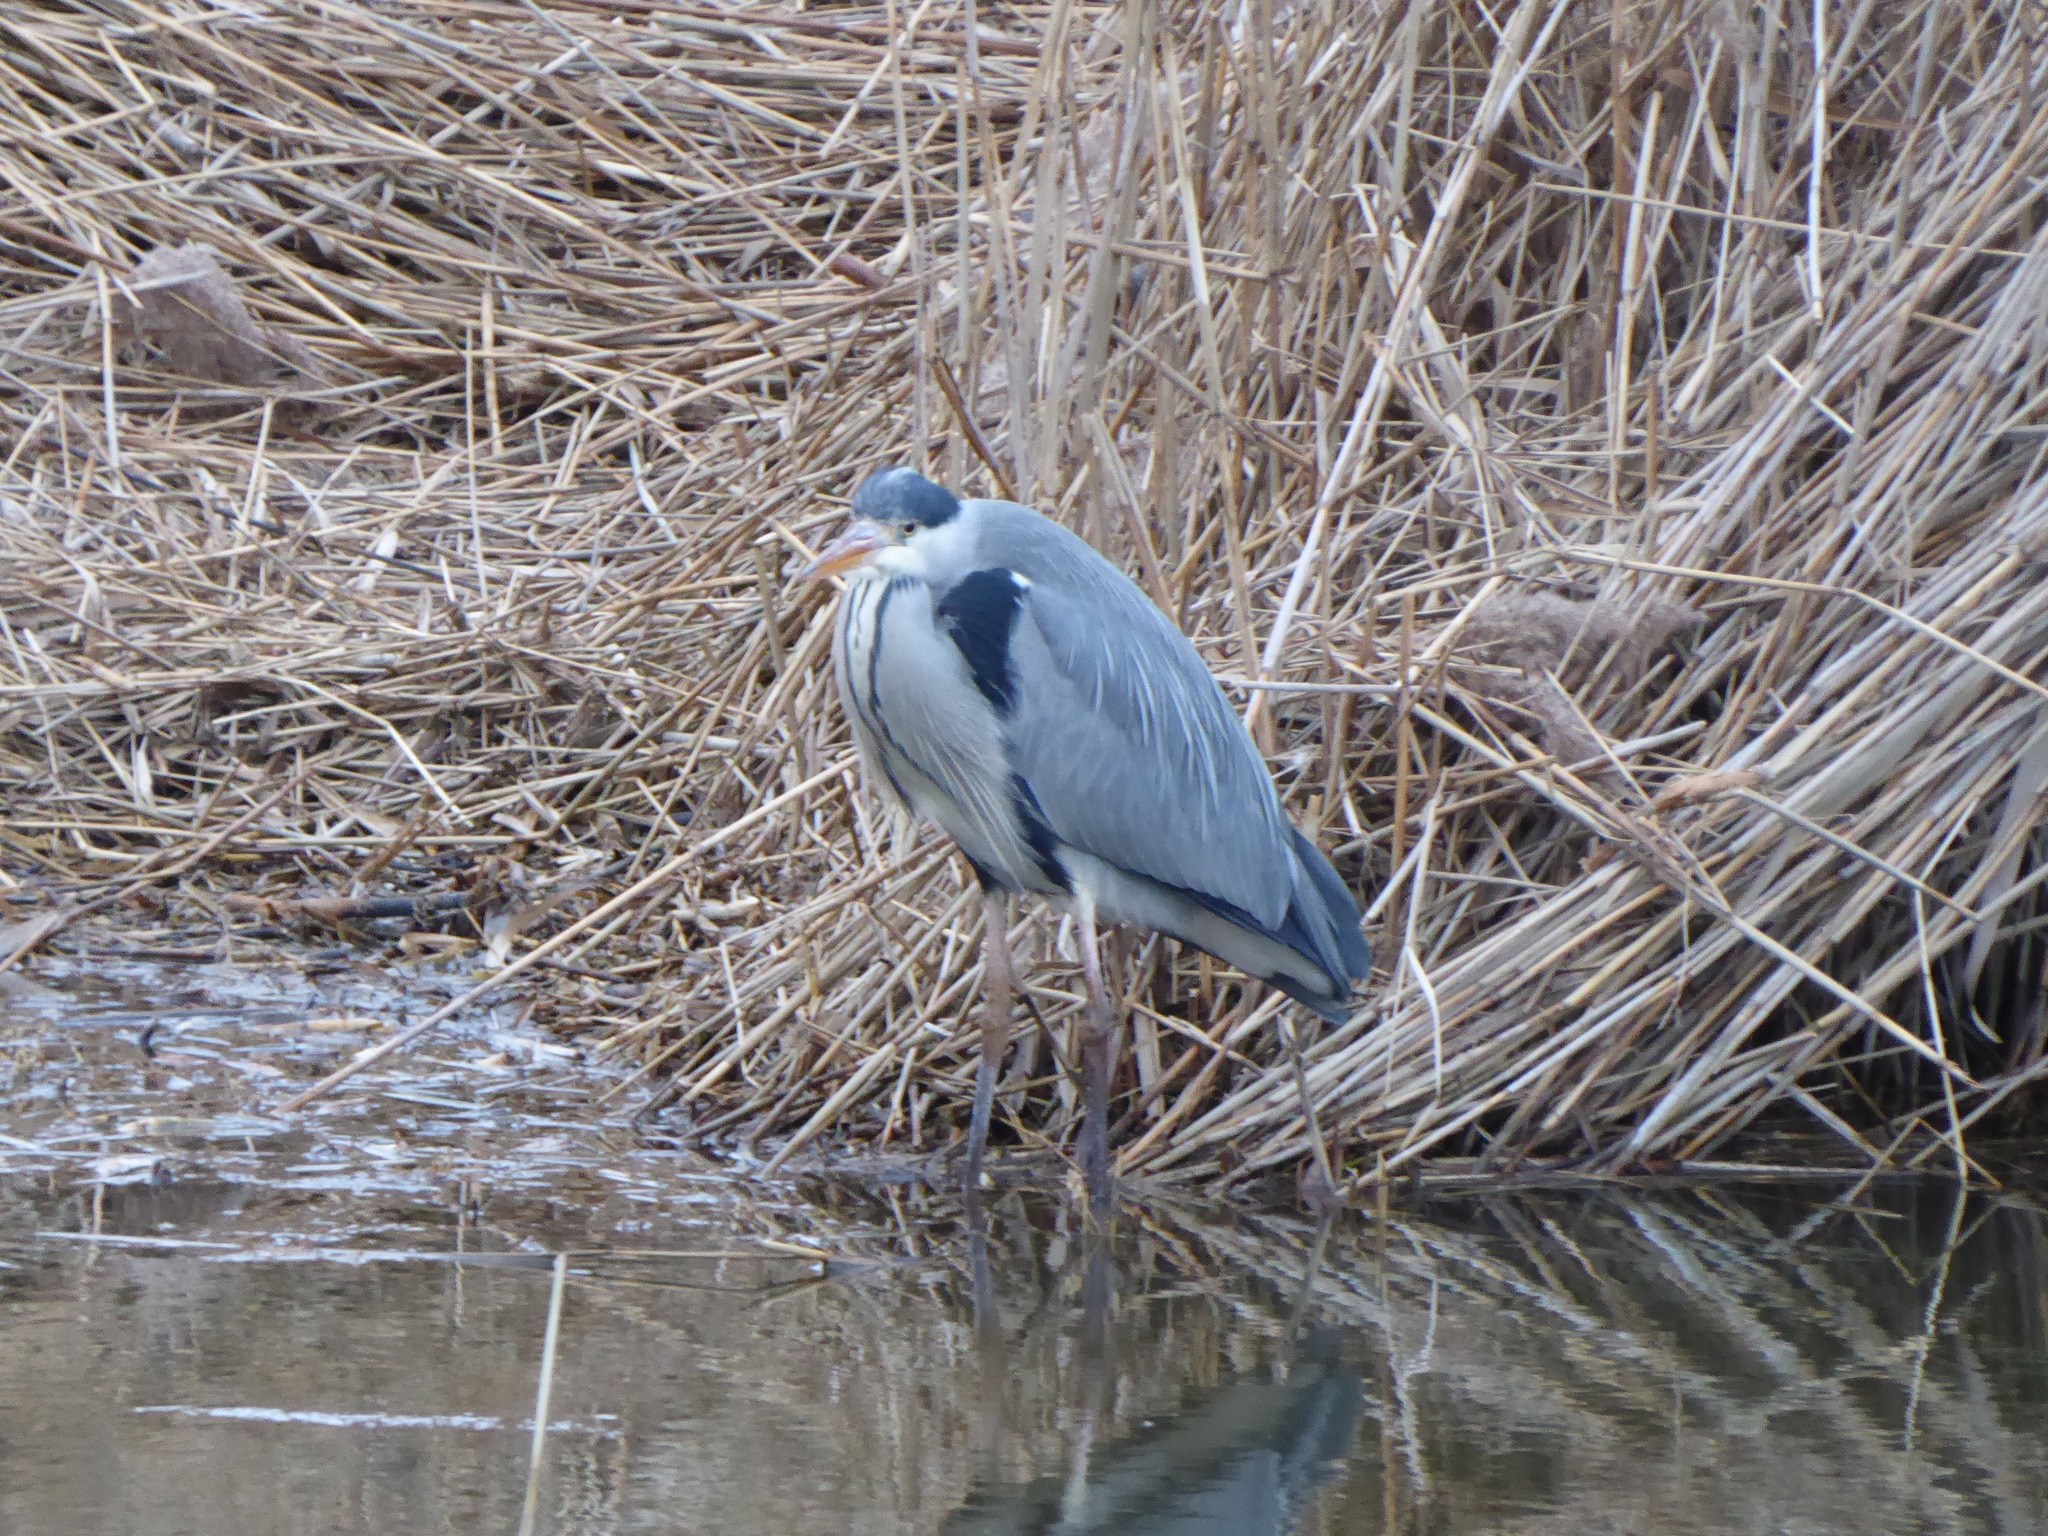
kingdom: Animalia
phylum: Chordata
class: Aves
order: Pelecaniformes
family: Ardeidae
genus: Ardea
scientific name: Ardea cinerea
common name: Grey heron
